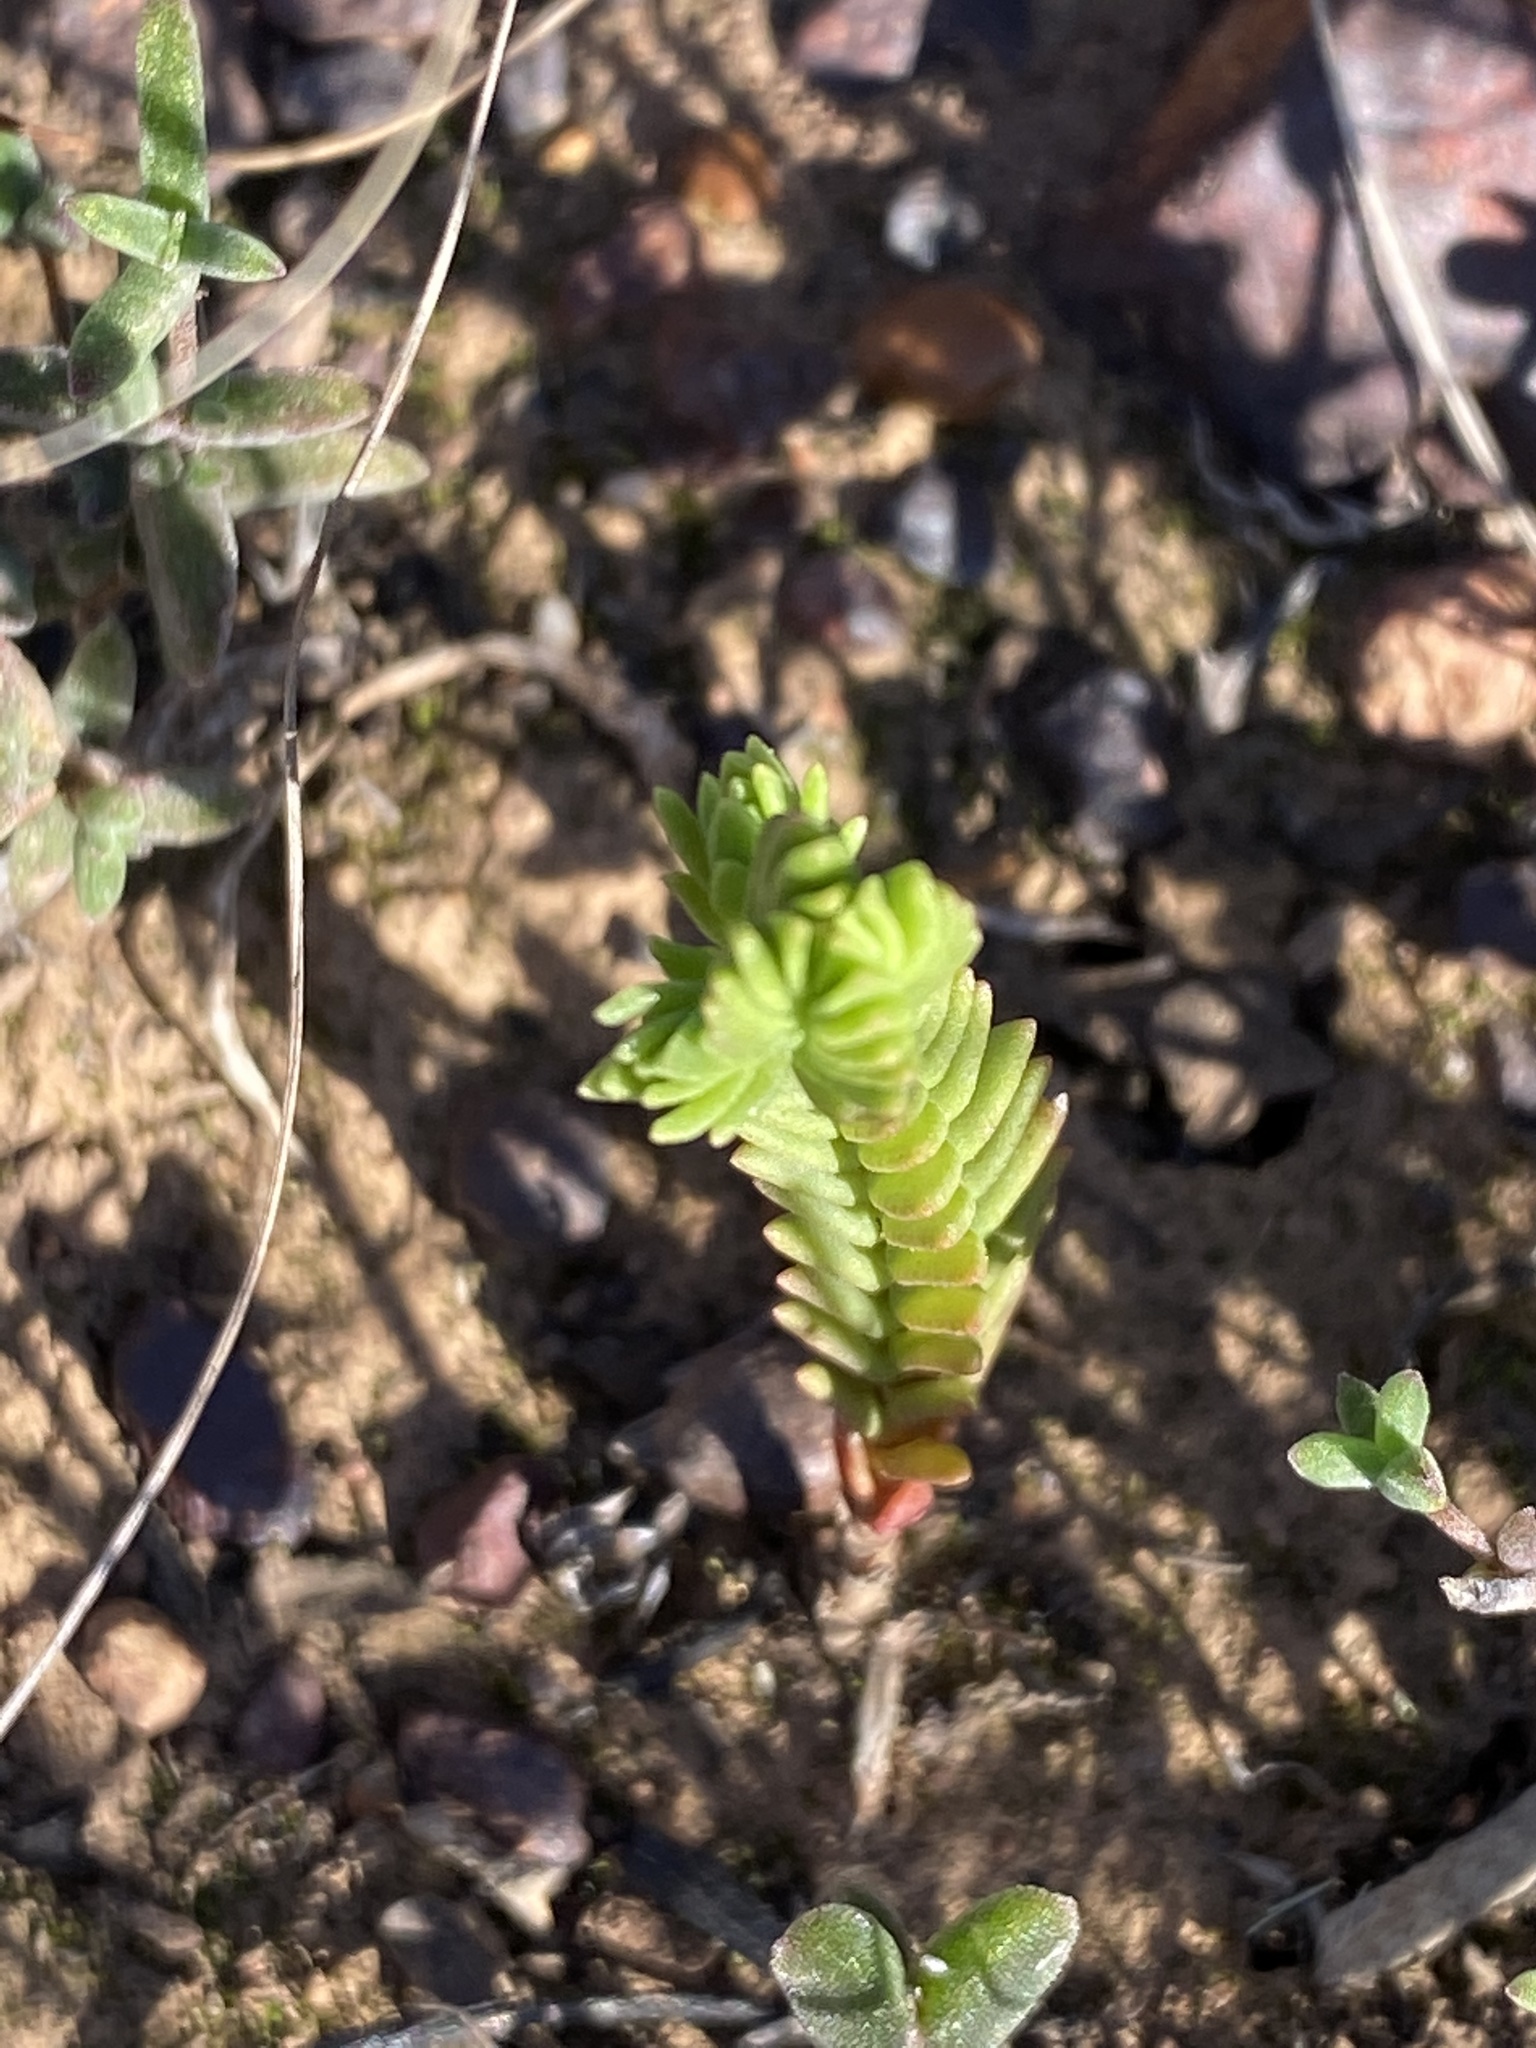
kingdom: Plantae
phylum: Tracheophyta
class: Magnoliopsida
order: Saxifragales
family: Crassulaceae
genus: Crassula
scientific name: Crassula ericoides
